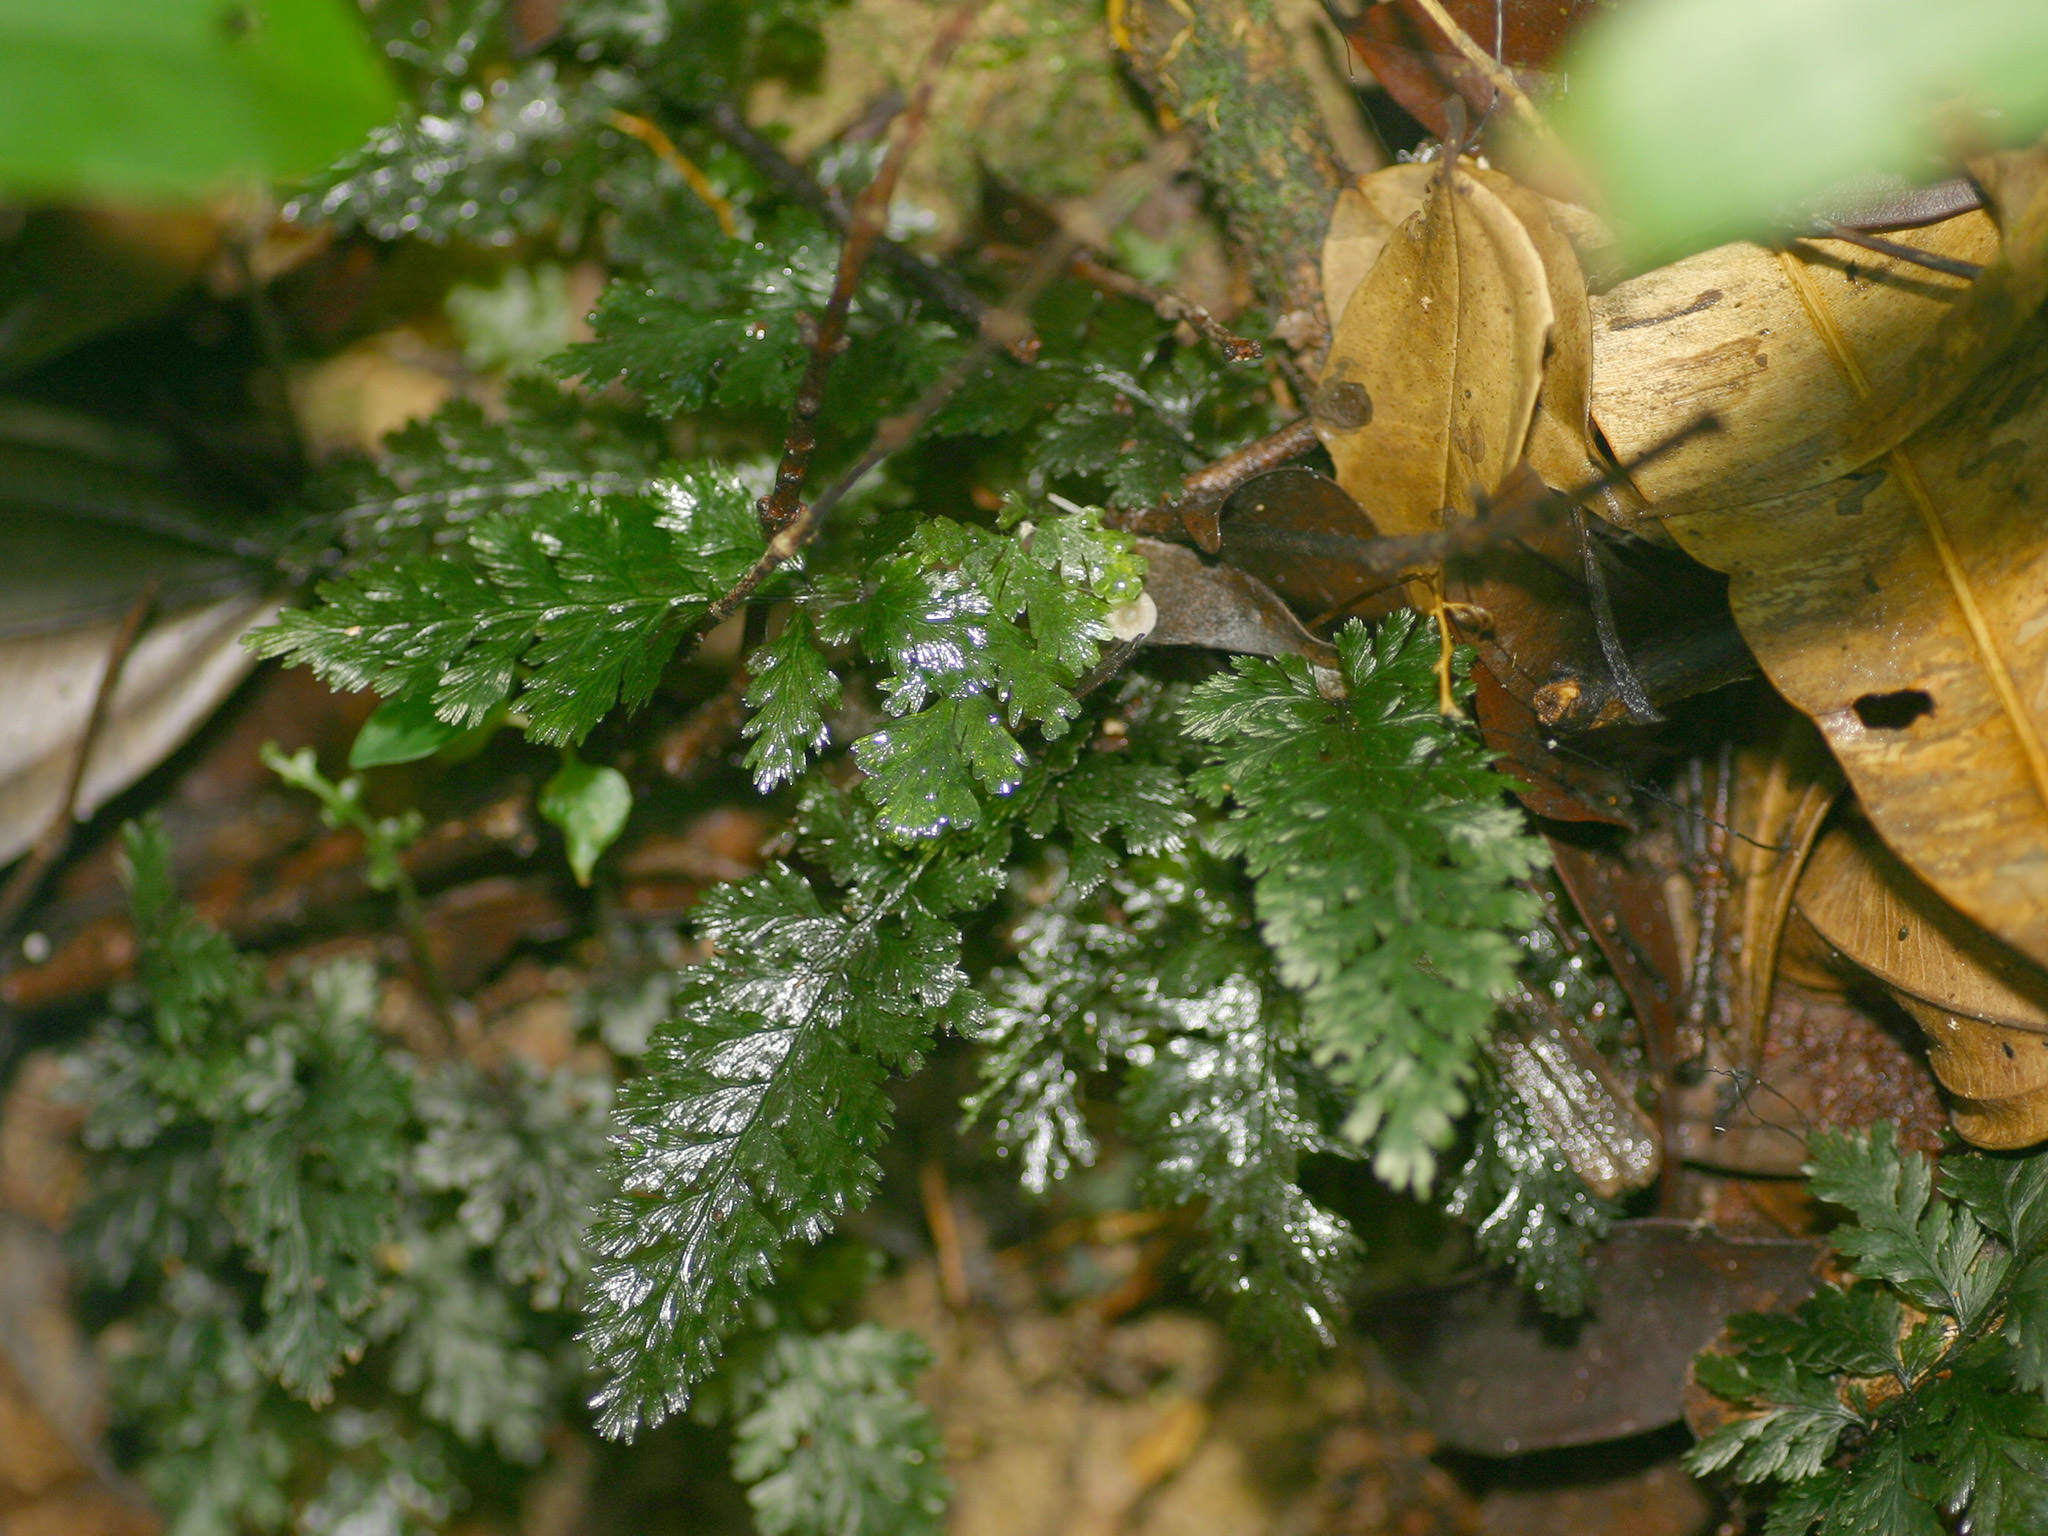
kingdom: Plantae
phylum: Tracheophyta
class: Polypodiopsida
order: Hymenophyllales
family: Hymenophyllaceae
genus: Cephalomanes
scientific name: Cephalomanes javanicum
